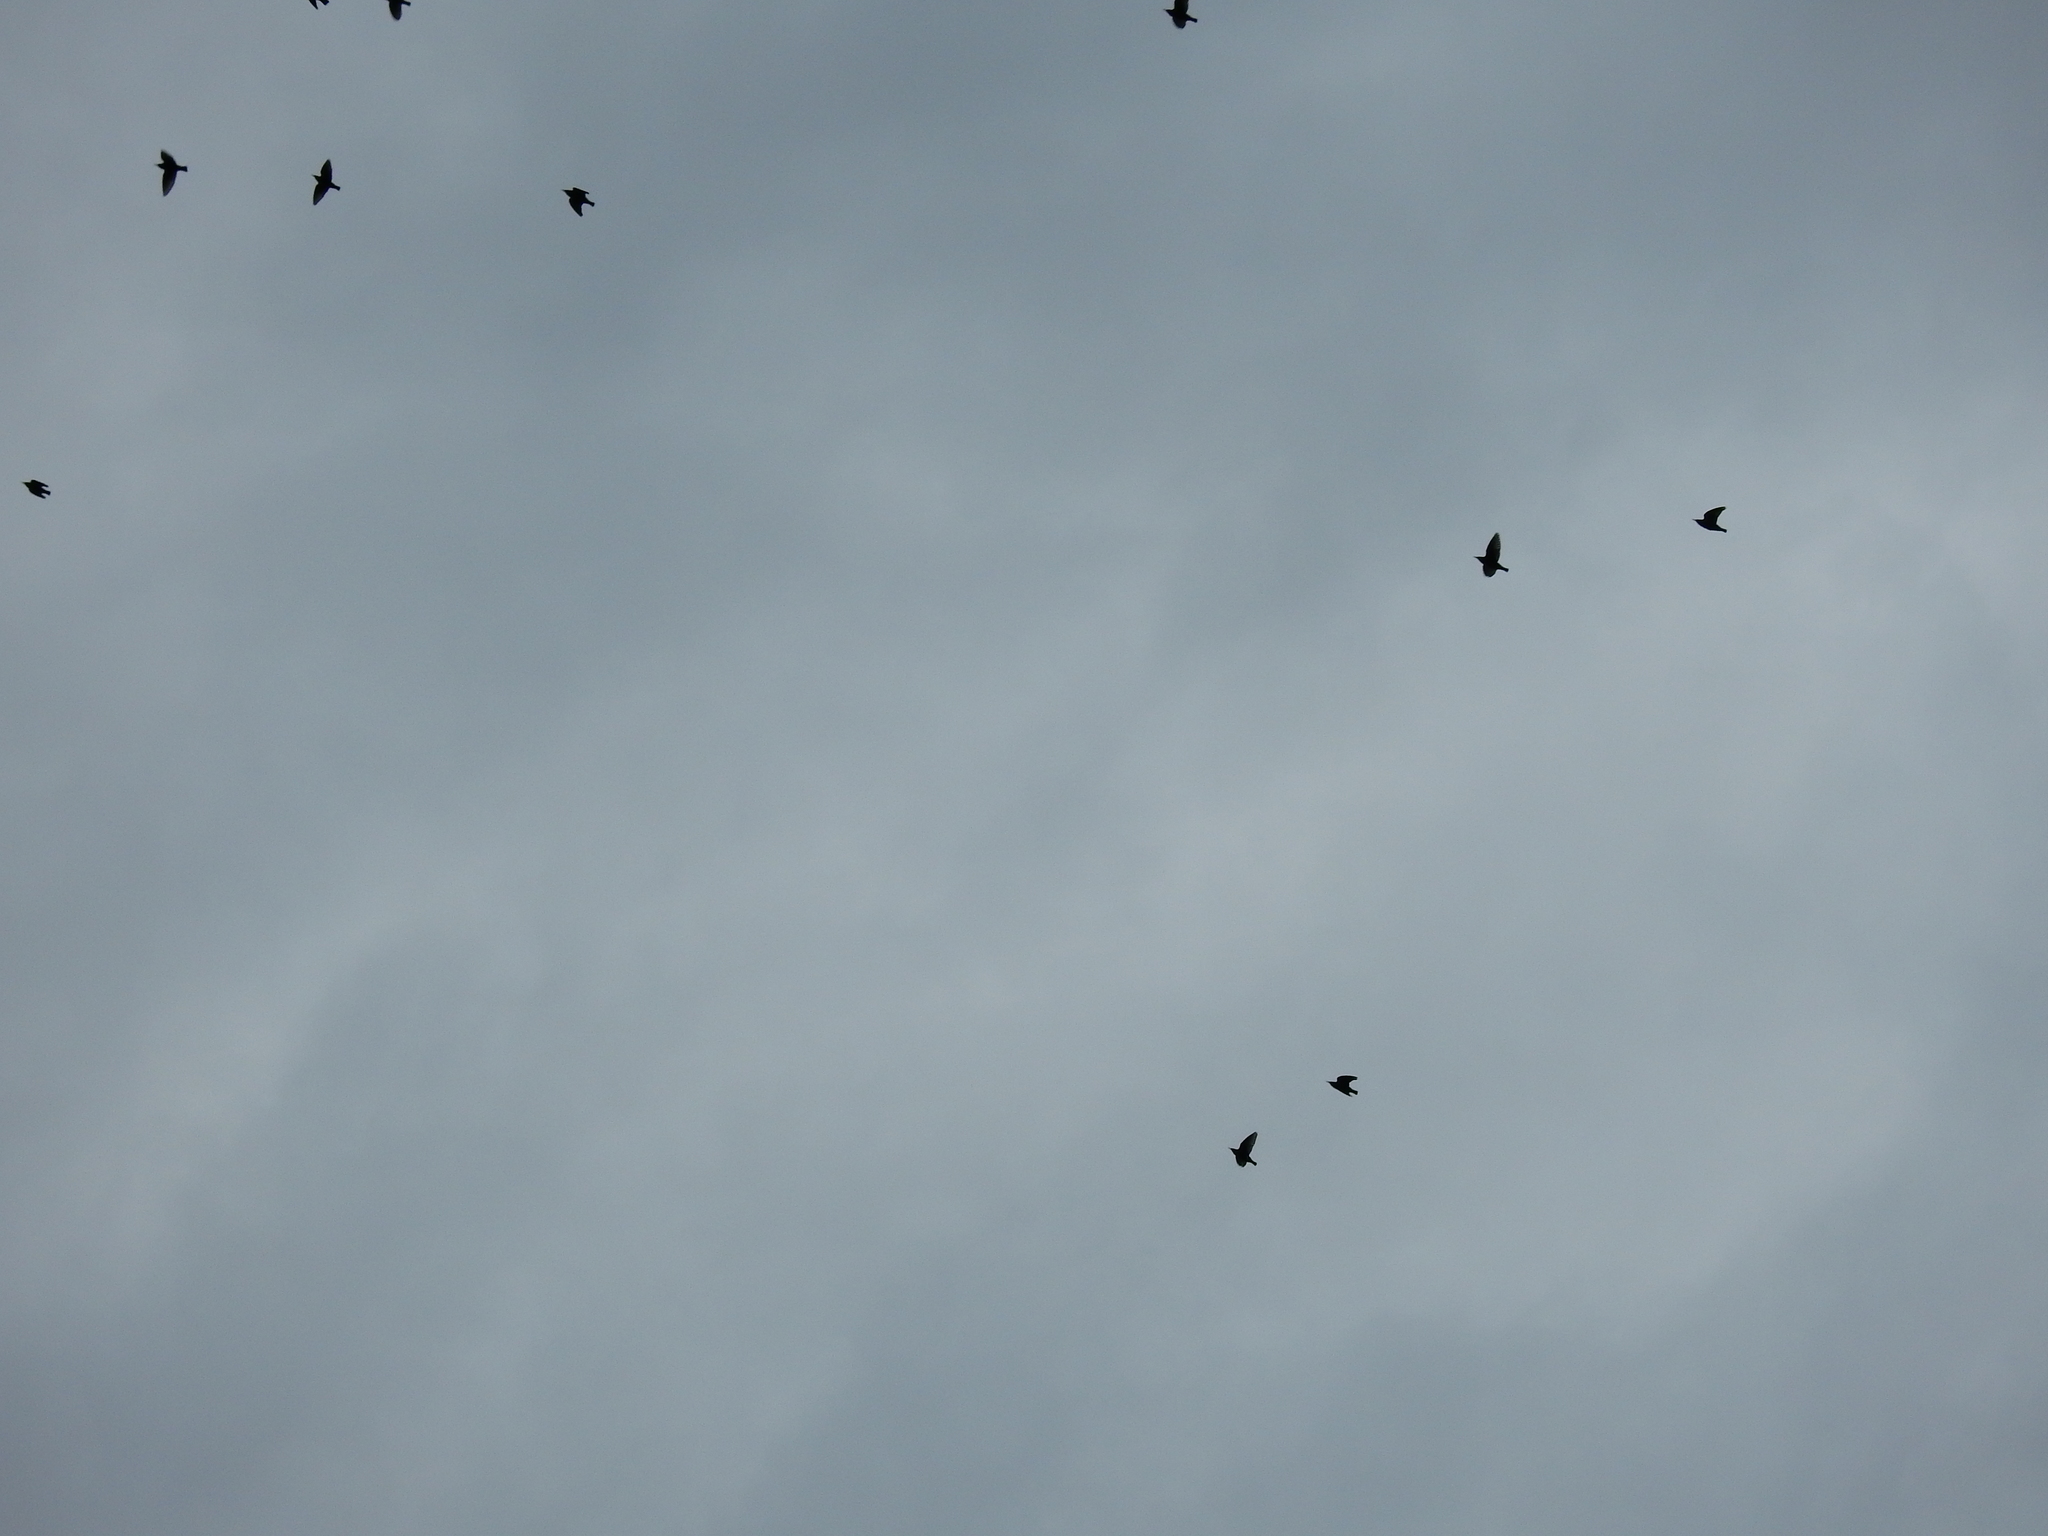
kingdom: Animalia
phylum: Chordata
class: Aves
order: Passeriformes
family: Sturnidae
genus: Sturnus
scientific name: Sturnus vulgaris
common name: Common starling
